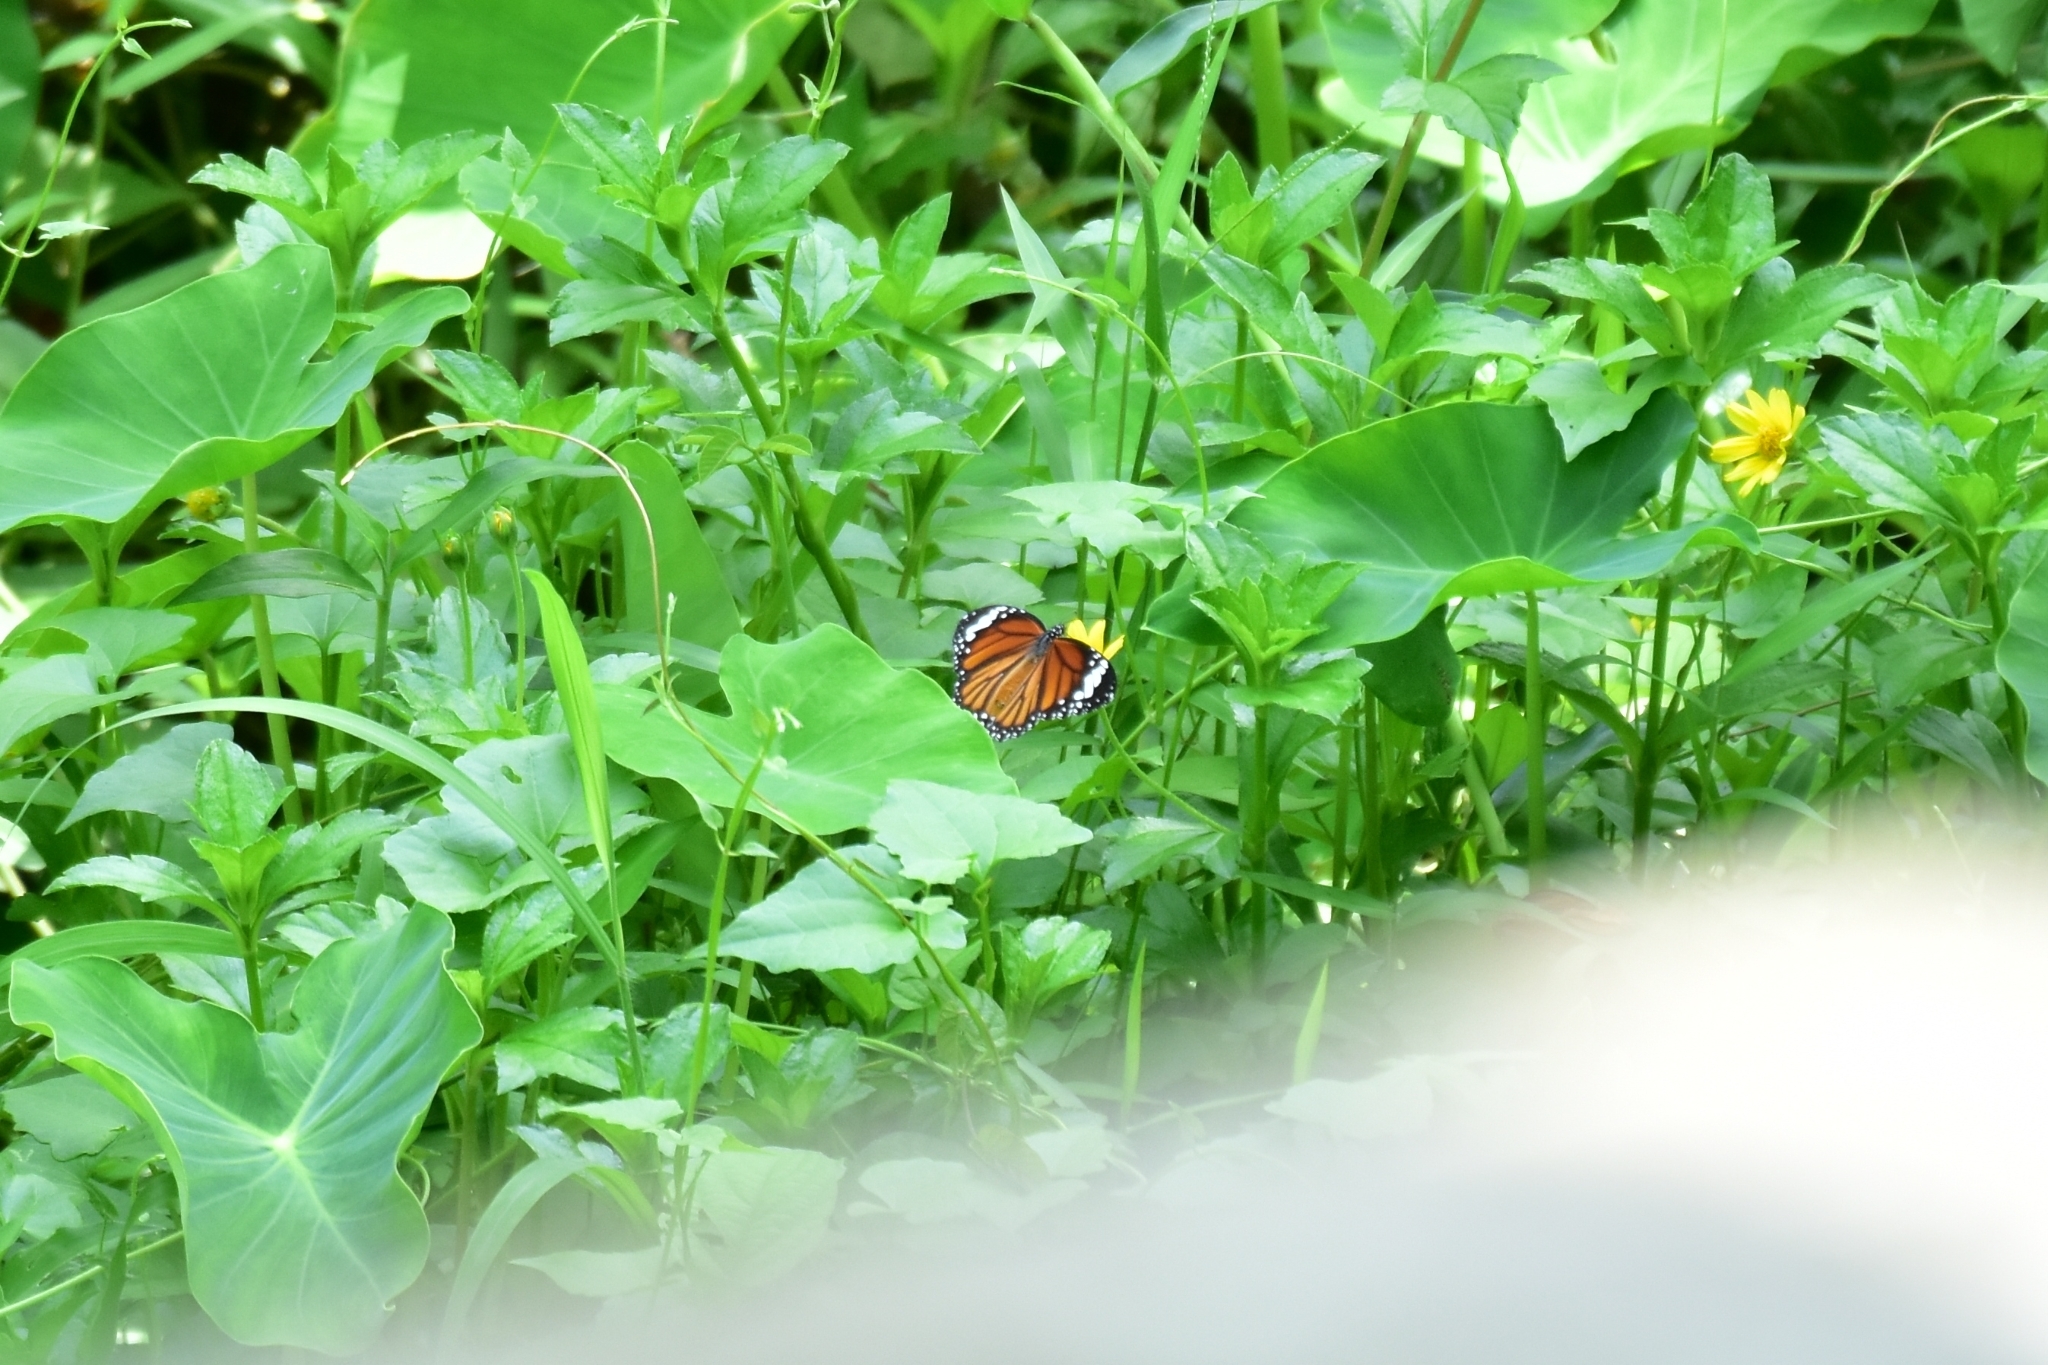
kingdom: Animalia
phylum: Arthropoda
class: Insecta
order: Lepidoptera
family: Nymphalidae
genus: Danaus
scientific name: Danaus genutia
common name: Common tiger butterfly
